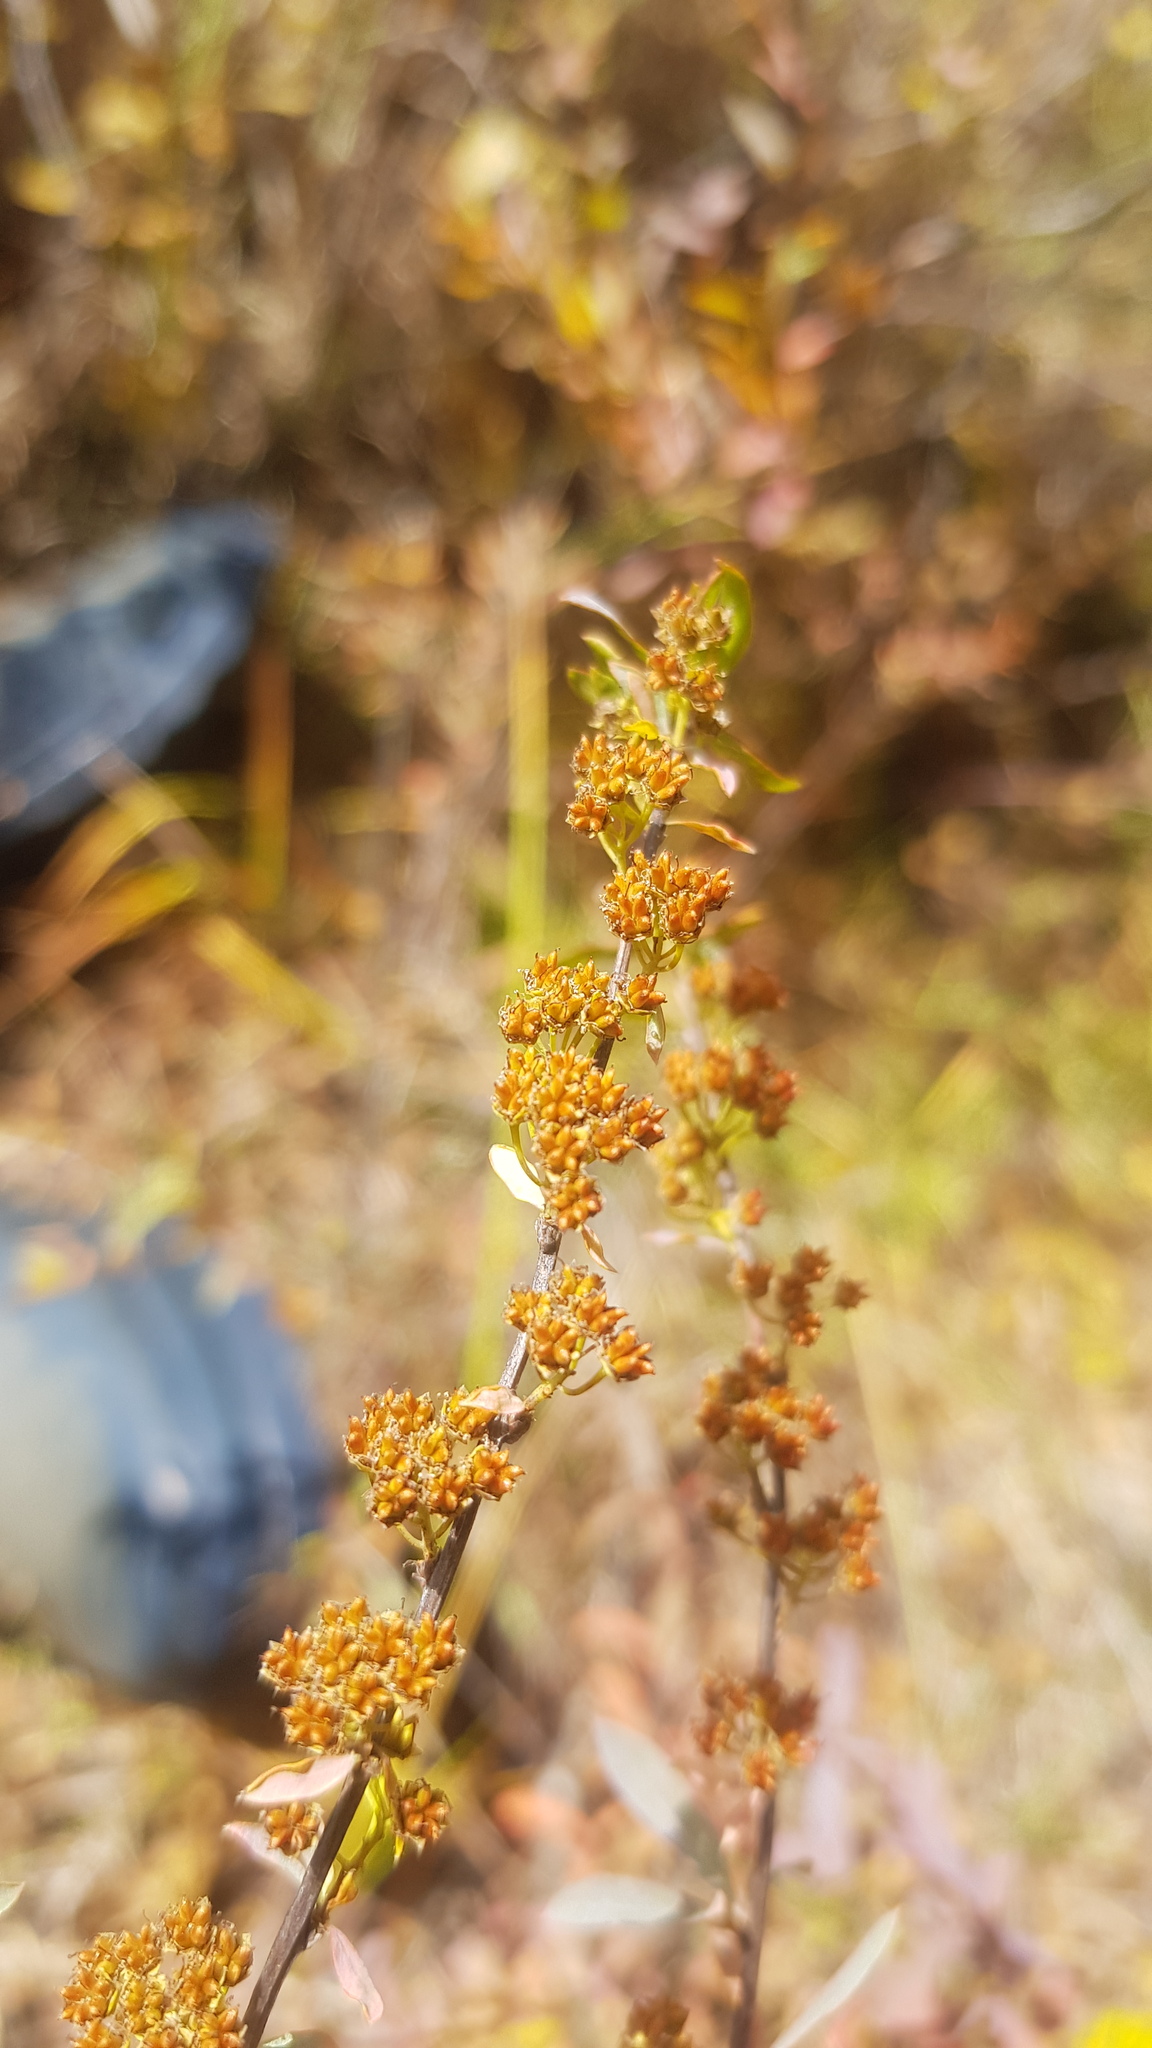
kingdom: Plantae
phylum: Tracheophyta
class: Magnoliopsida
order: Rosales
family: Rosaceae
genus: Spiraea
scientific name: Spiraea alpina
